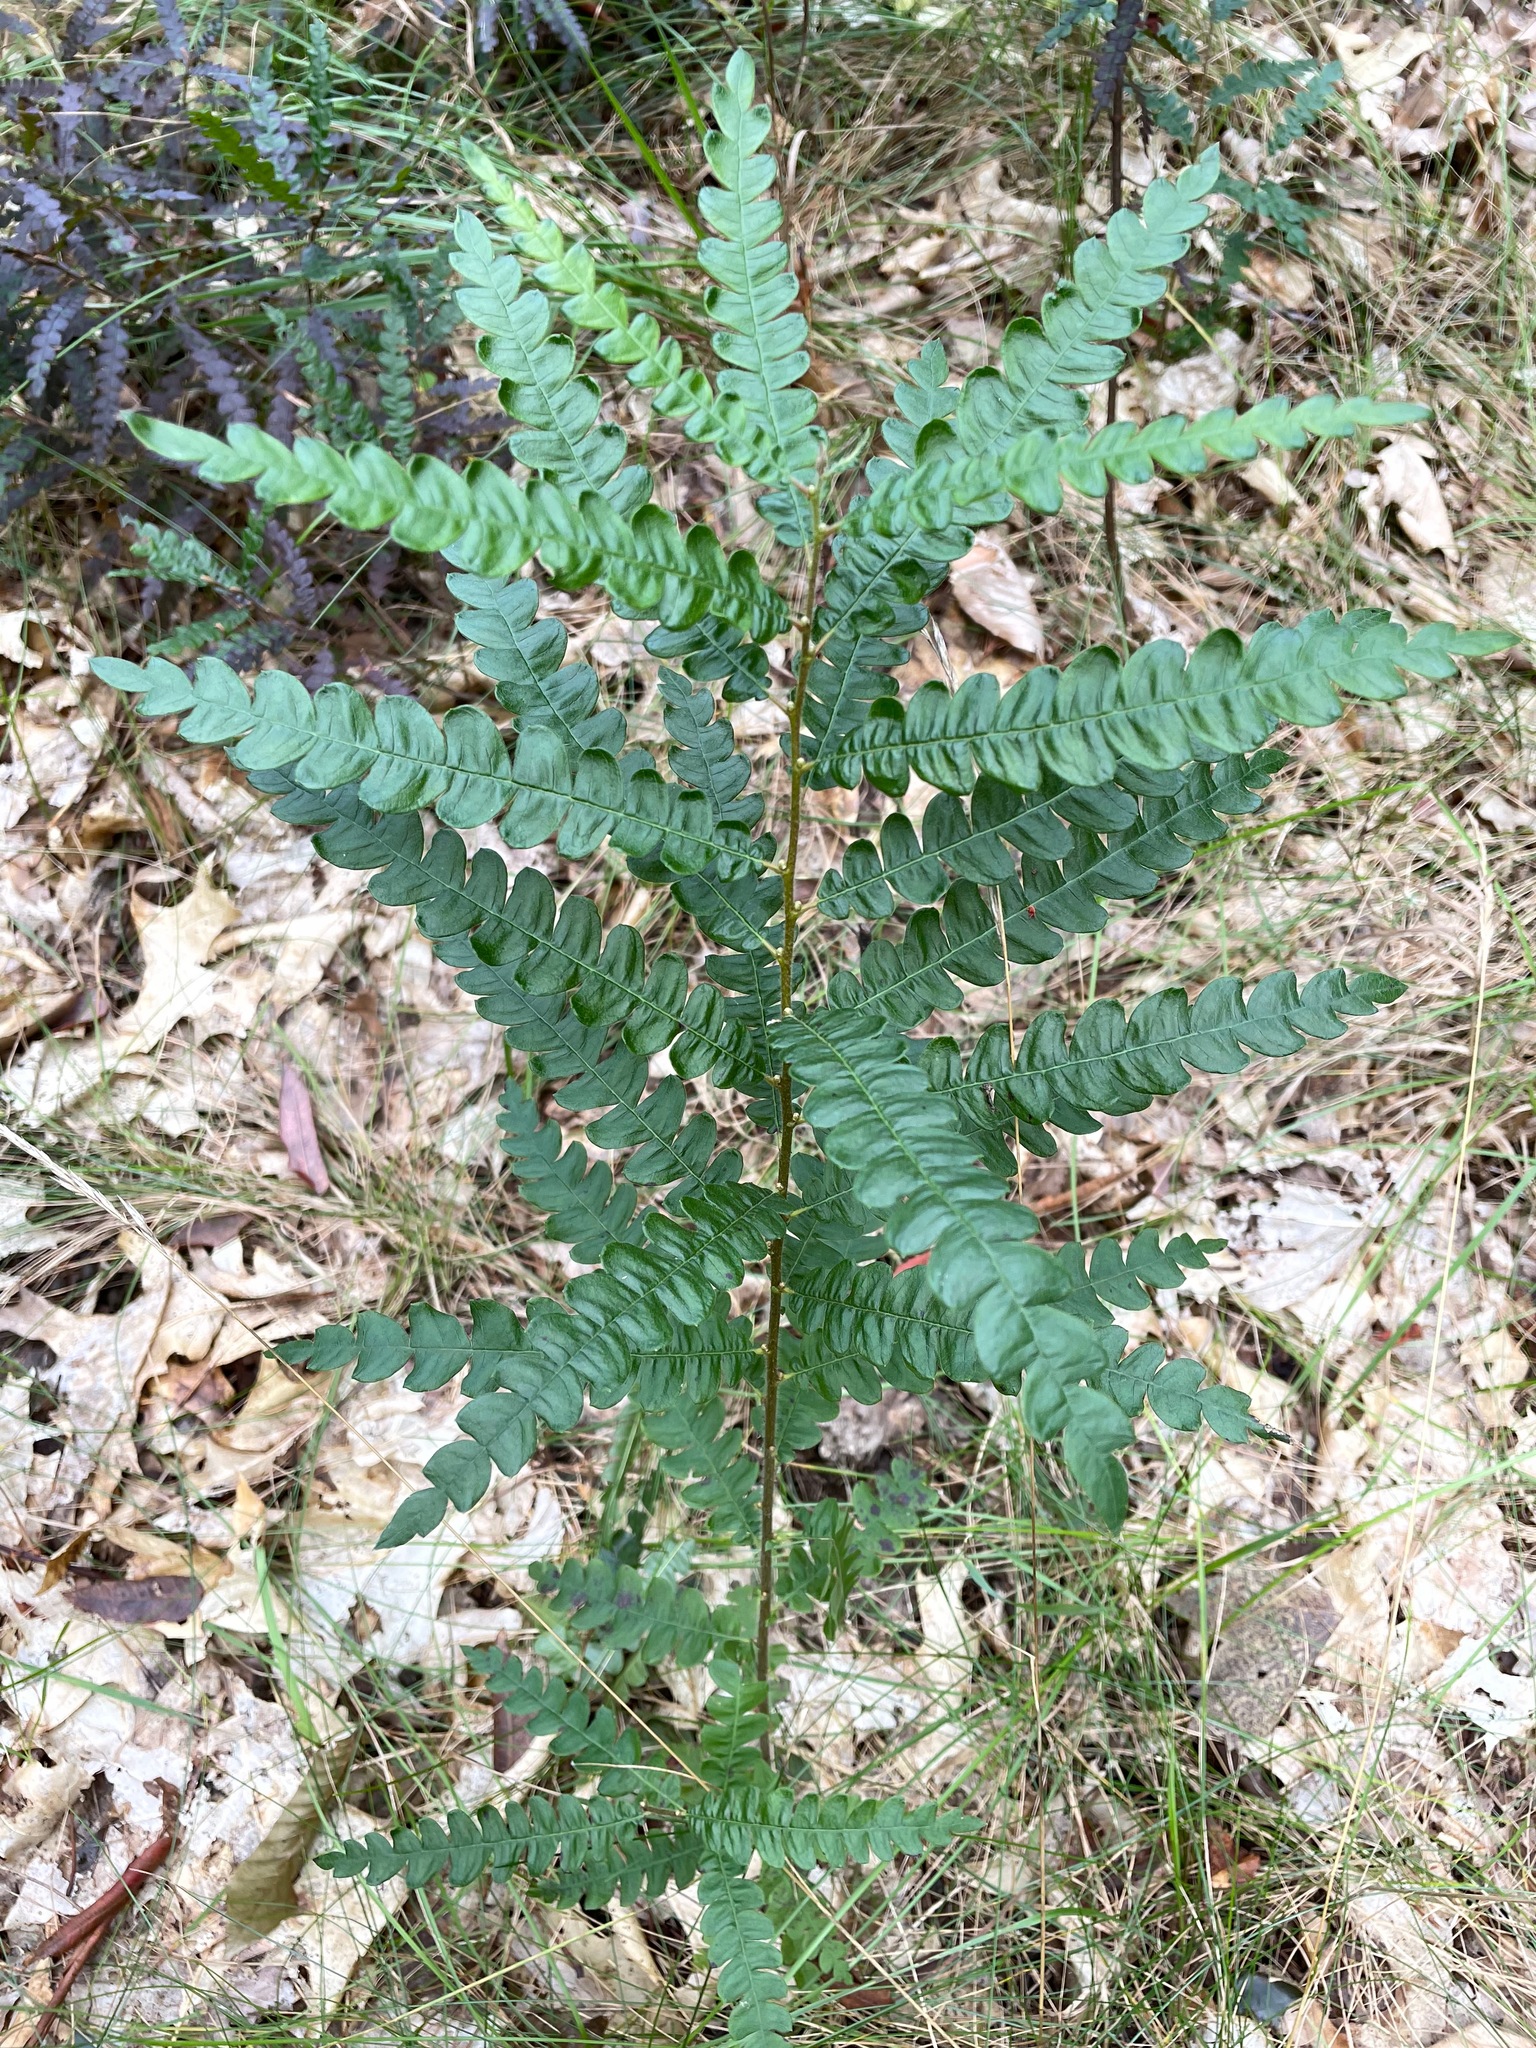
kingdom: Plantae
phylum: Tracheophyta
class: Magnoliopsida
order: Fagales
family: Myricaceae
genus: Comptonia
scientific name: Comptonia peregrina
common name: Sweet-fern
